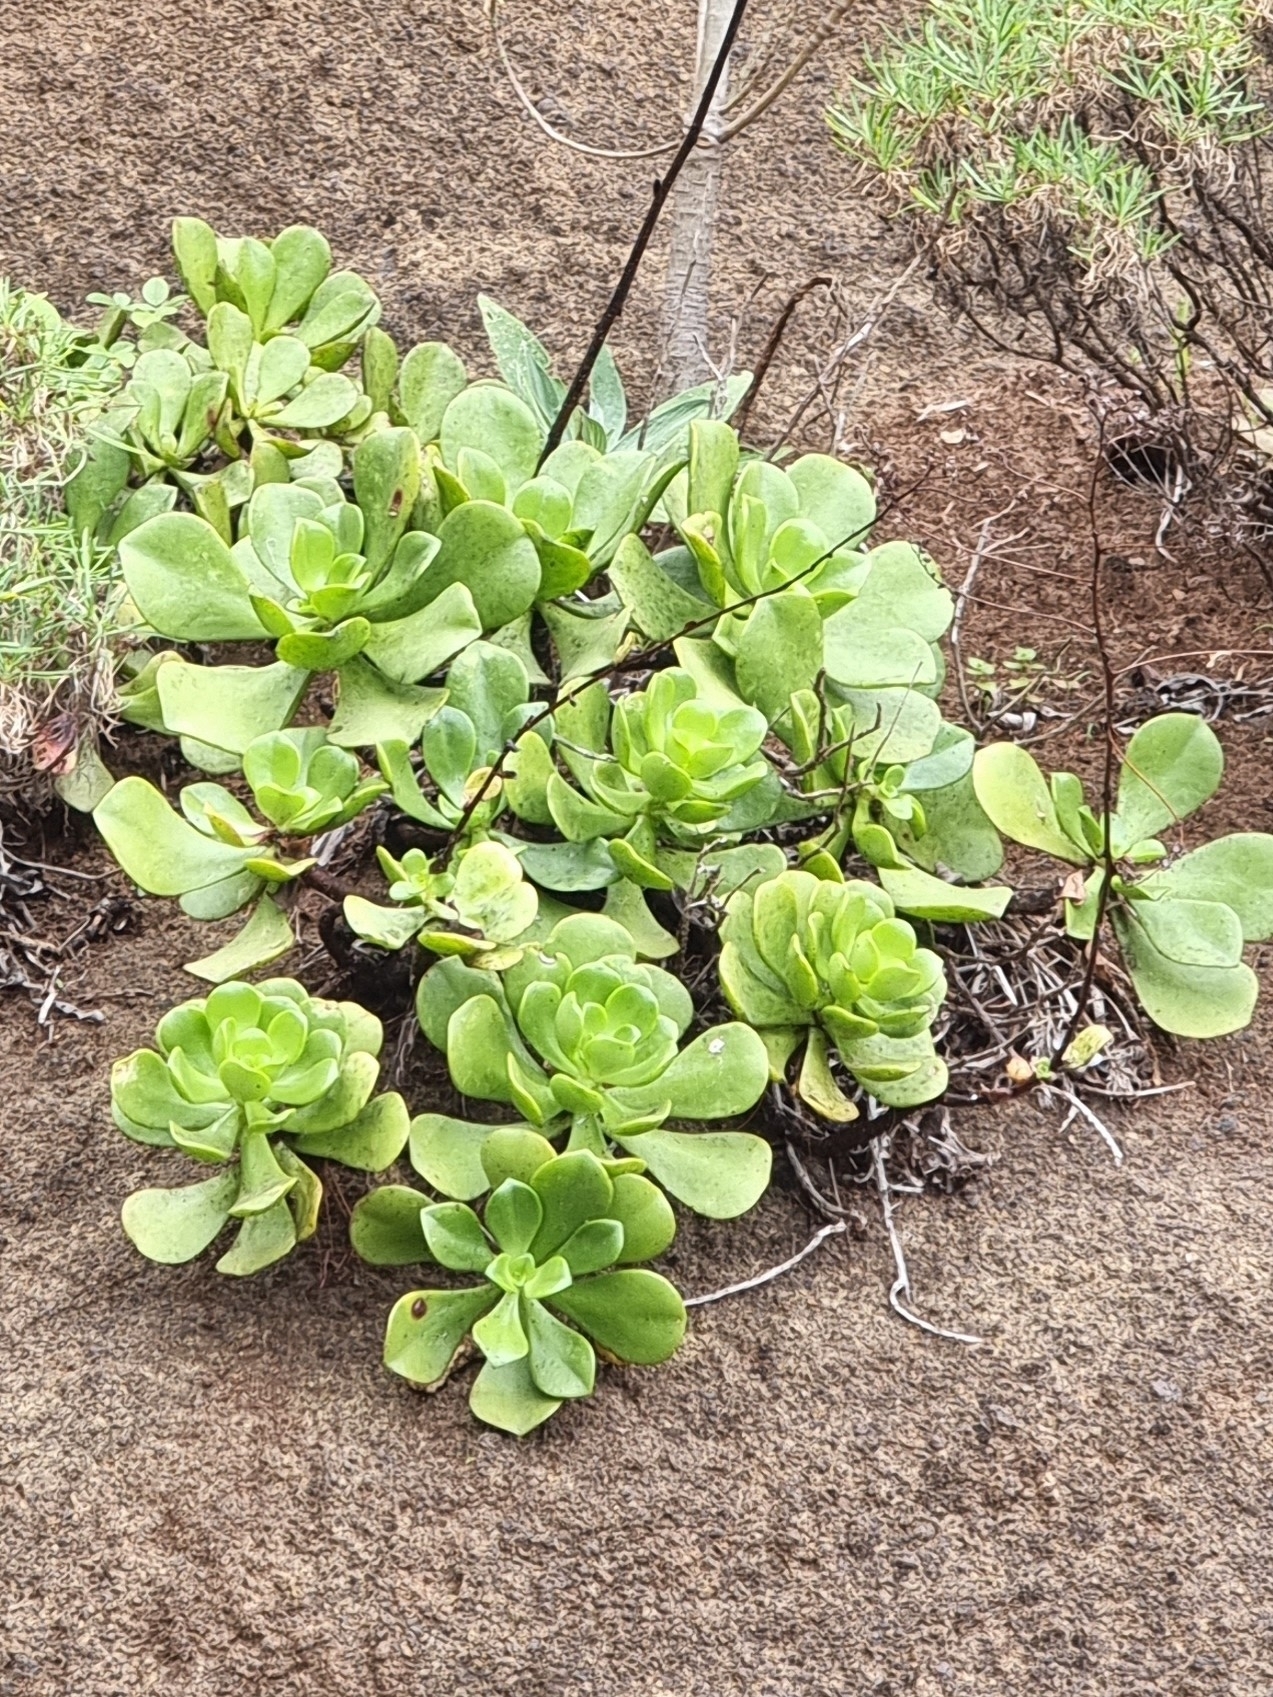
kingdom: Plantae
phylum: Tracheophyta
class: Magnoliopsida
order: Saxifragales
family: Crassulaceae
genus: Aeonium
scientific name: Aeonium glutinosum
